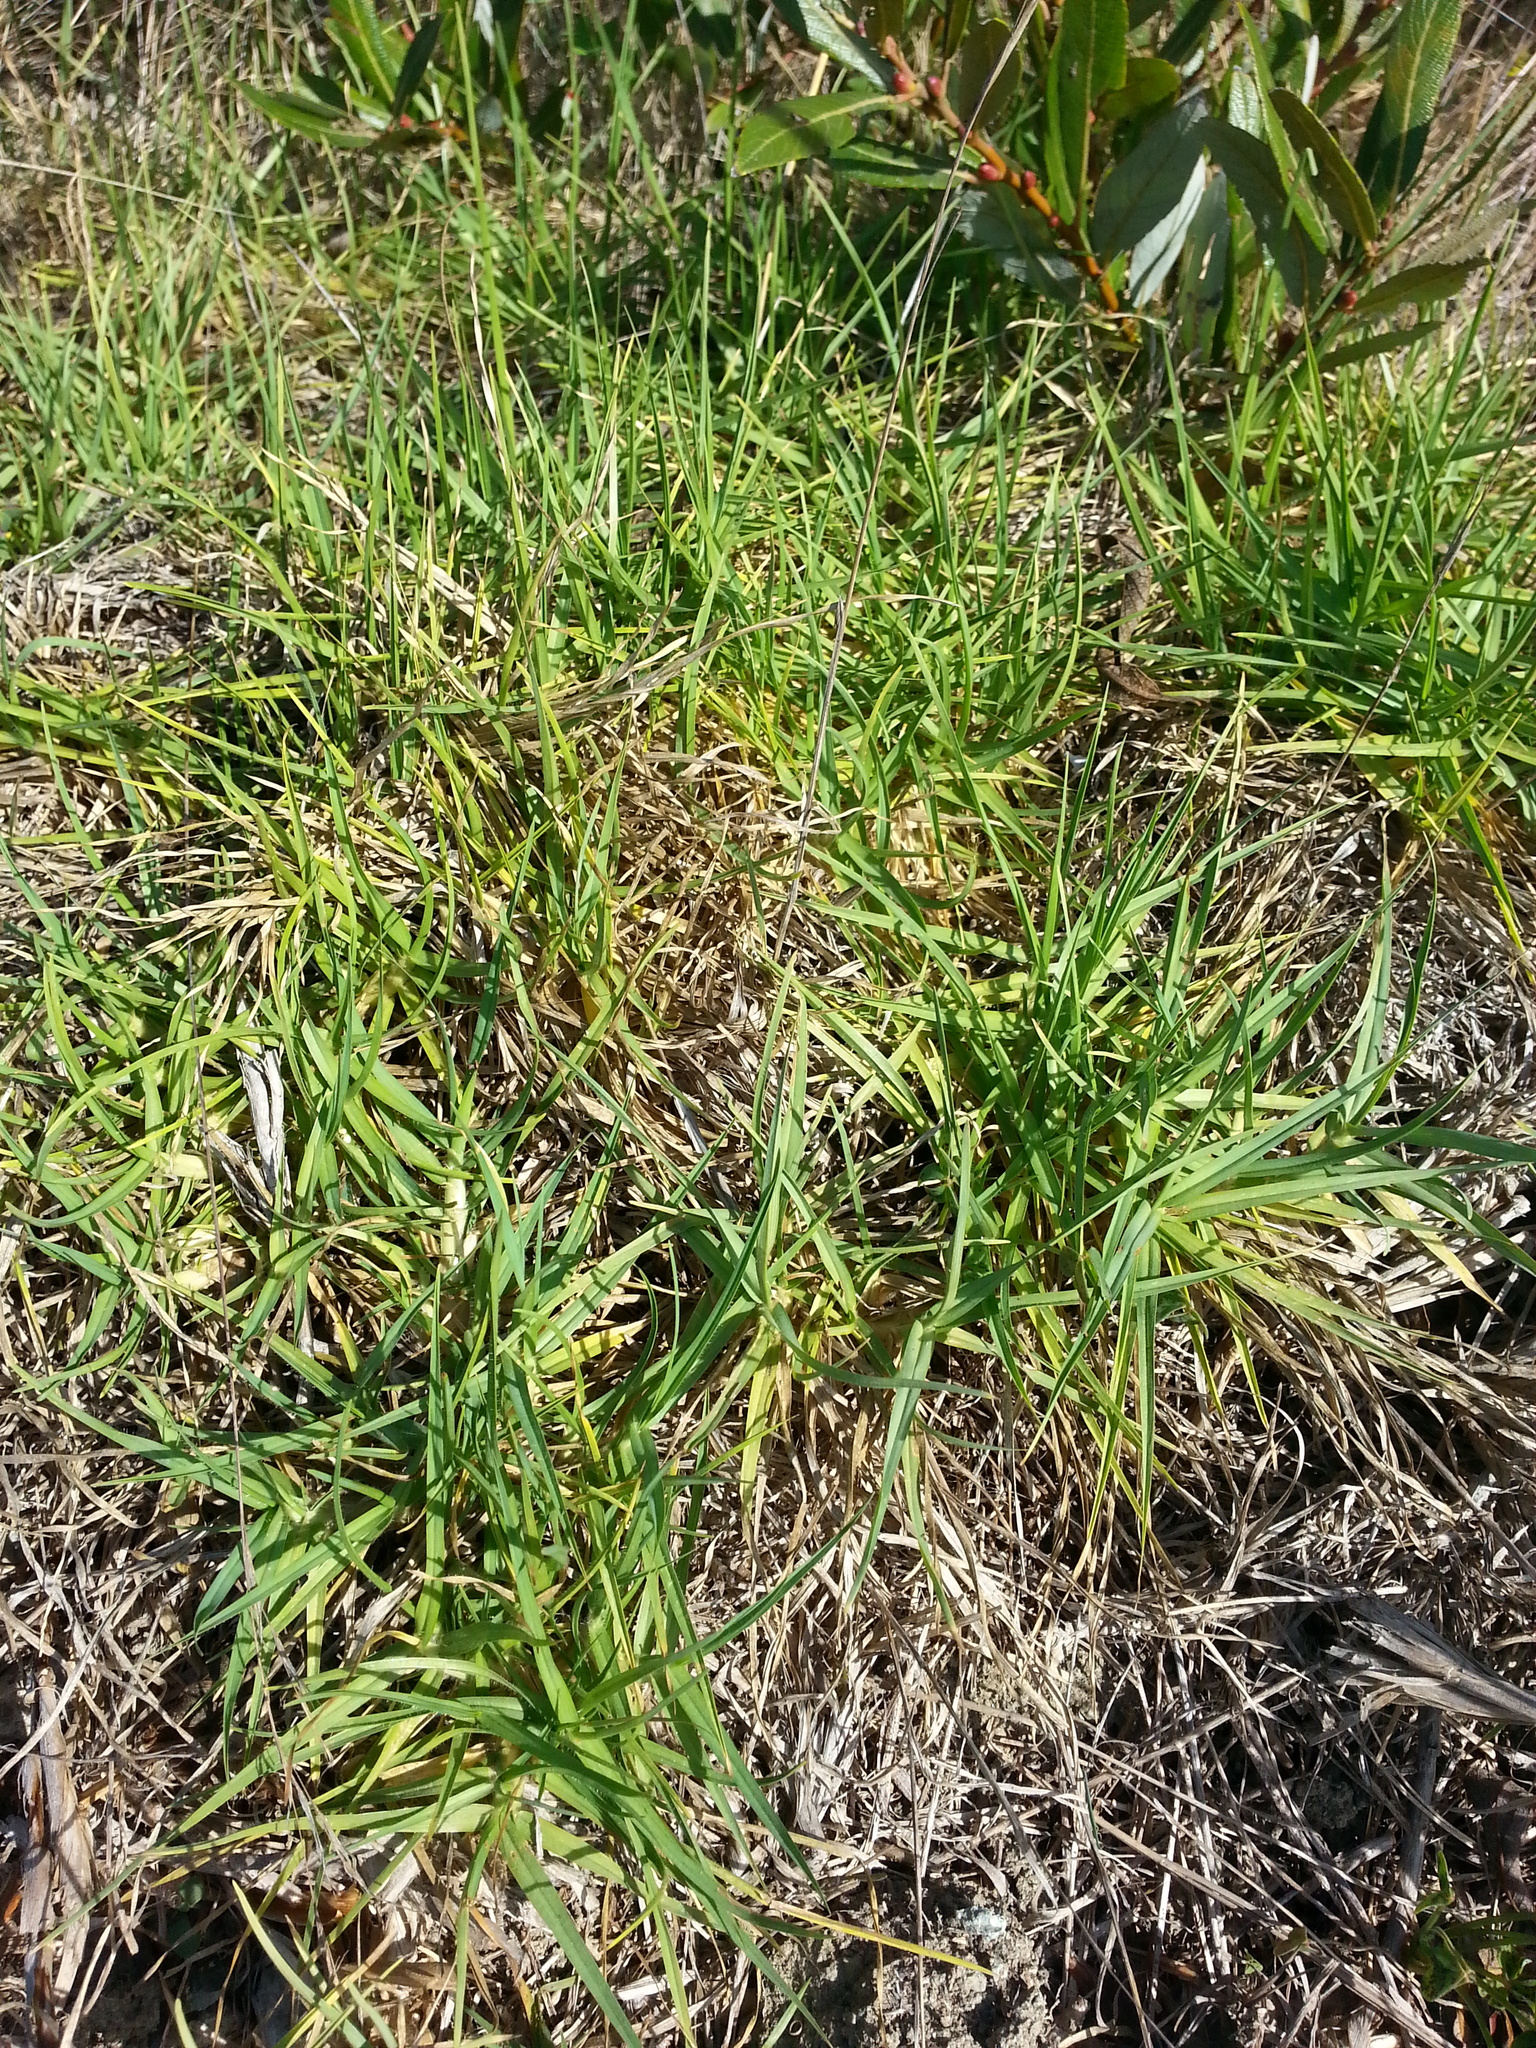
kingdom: Plantae
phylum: Tracheophyta
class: Liliopsida
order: Poales
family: Poaceae
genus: Cenchrus
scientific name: Cenchrus clandestinus
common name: Kikuyugrass
